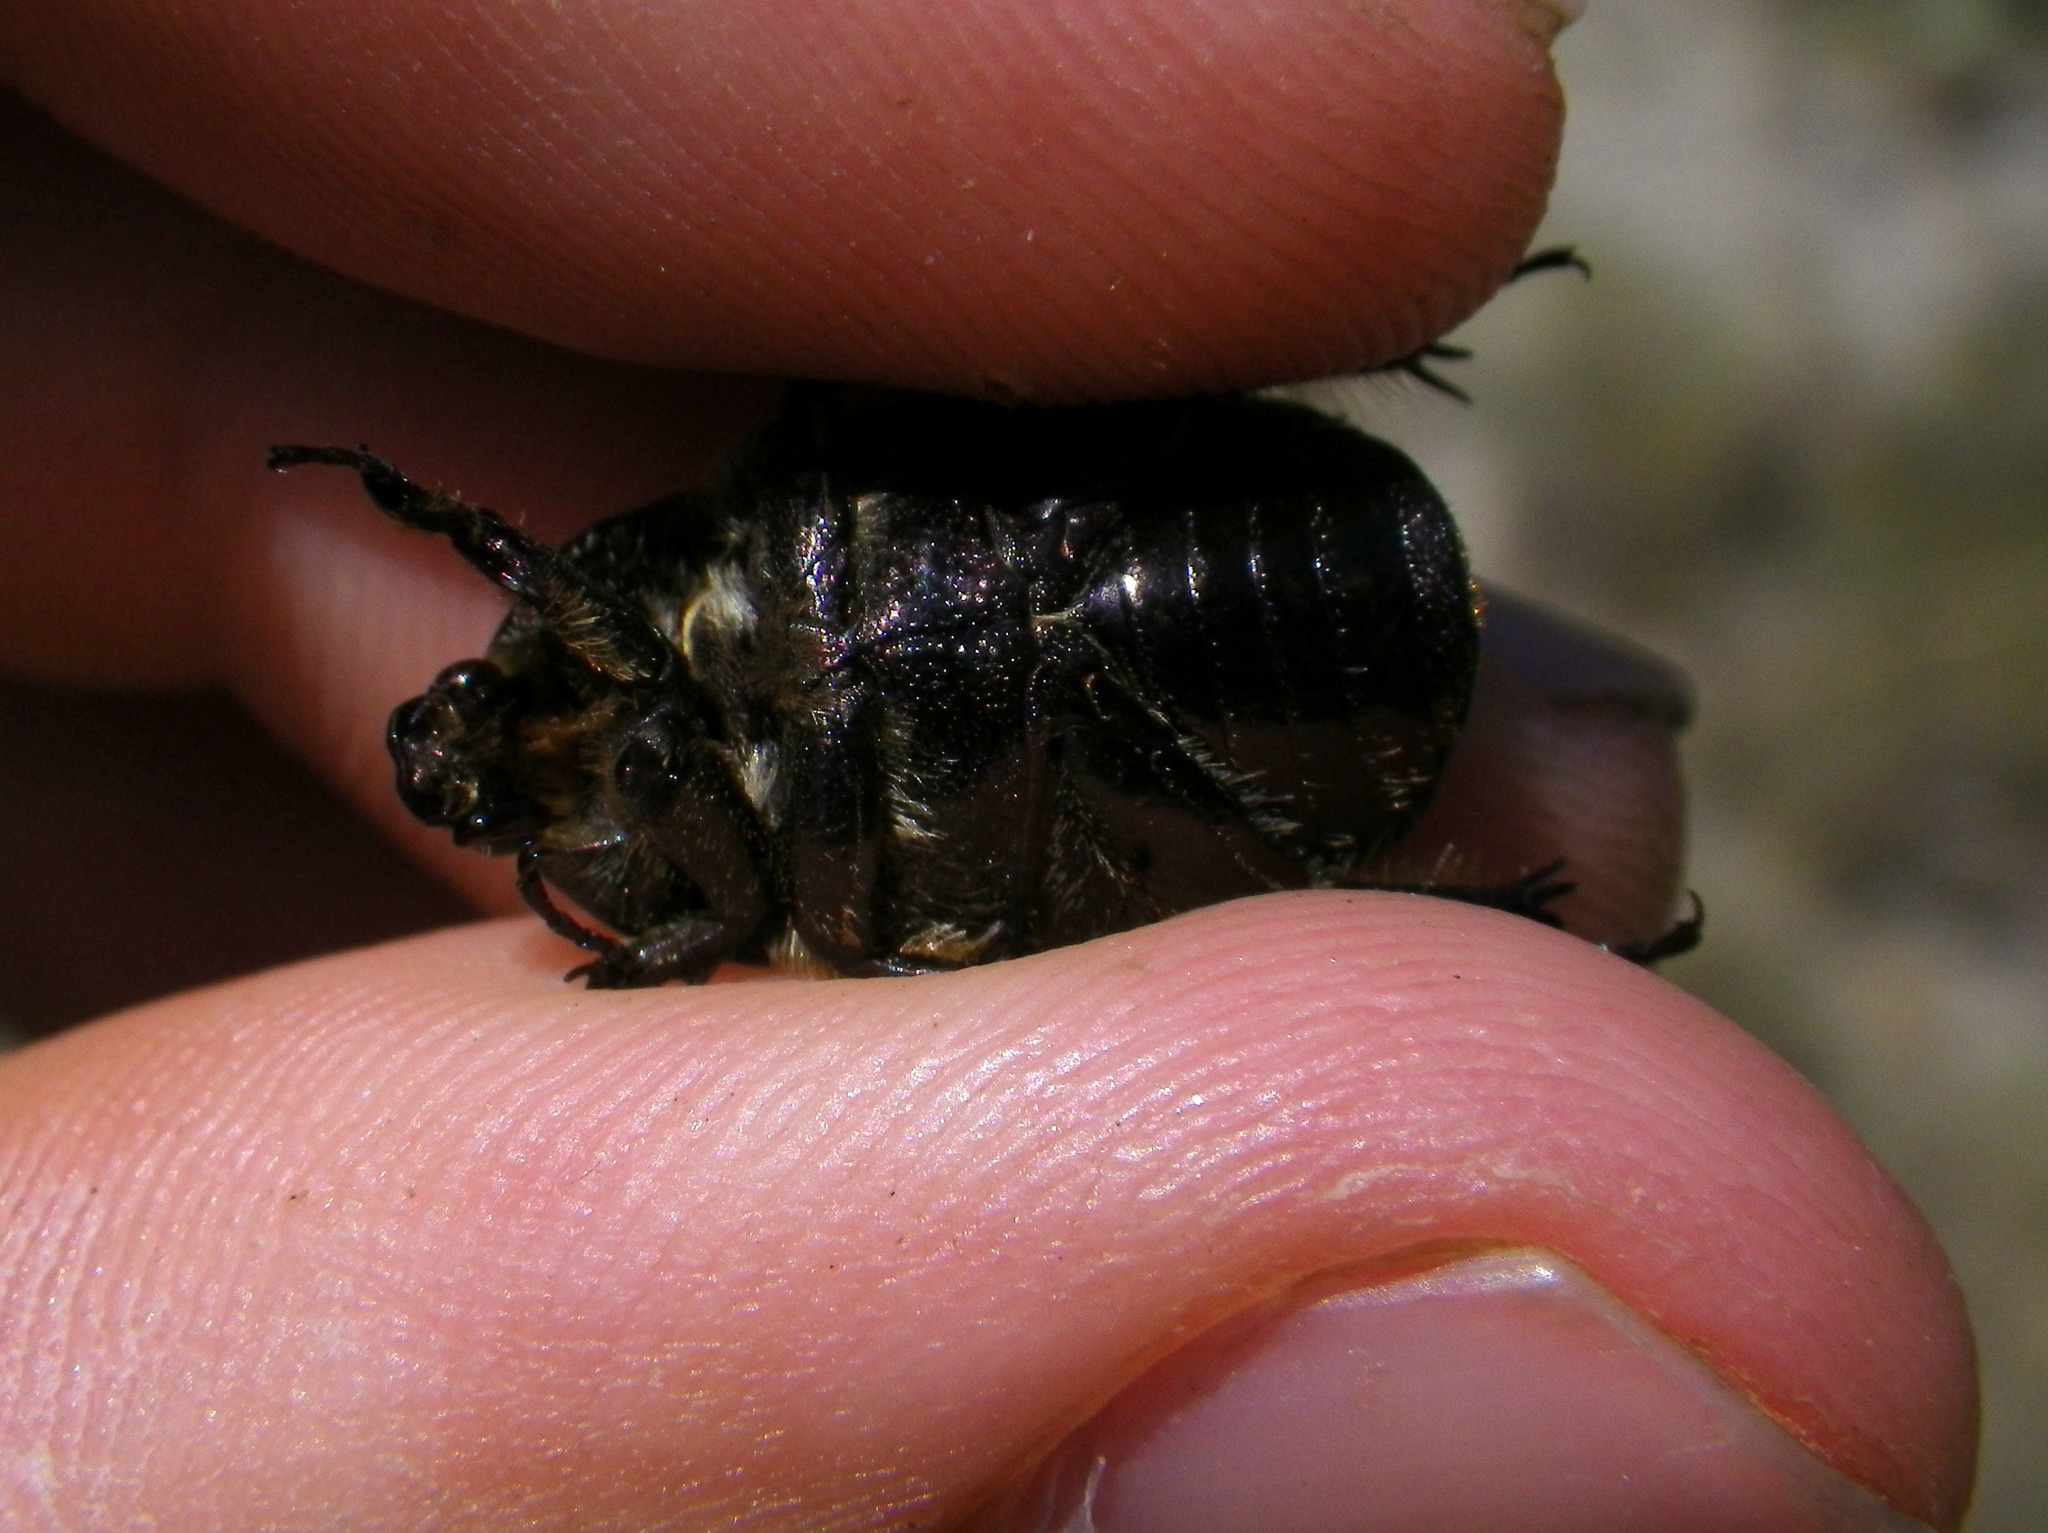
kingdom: Animalia
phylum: Arthropoda
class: Insecta
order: Coleoptera
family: Scarabaeidae
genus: Protaetia
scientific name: Protaetia oblonga
